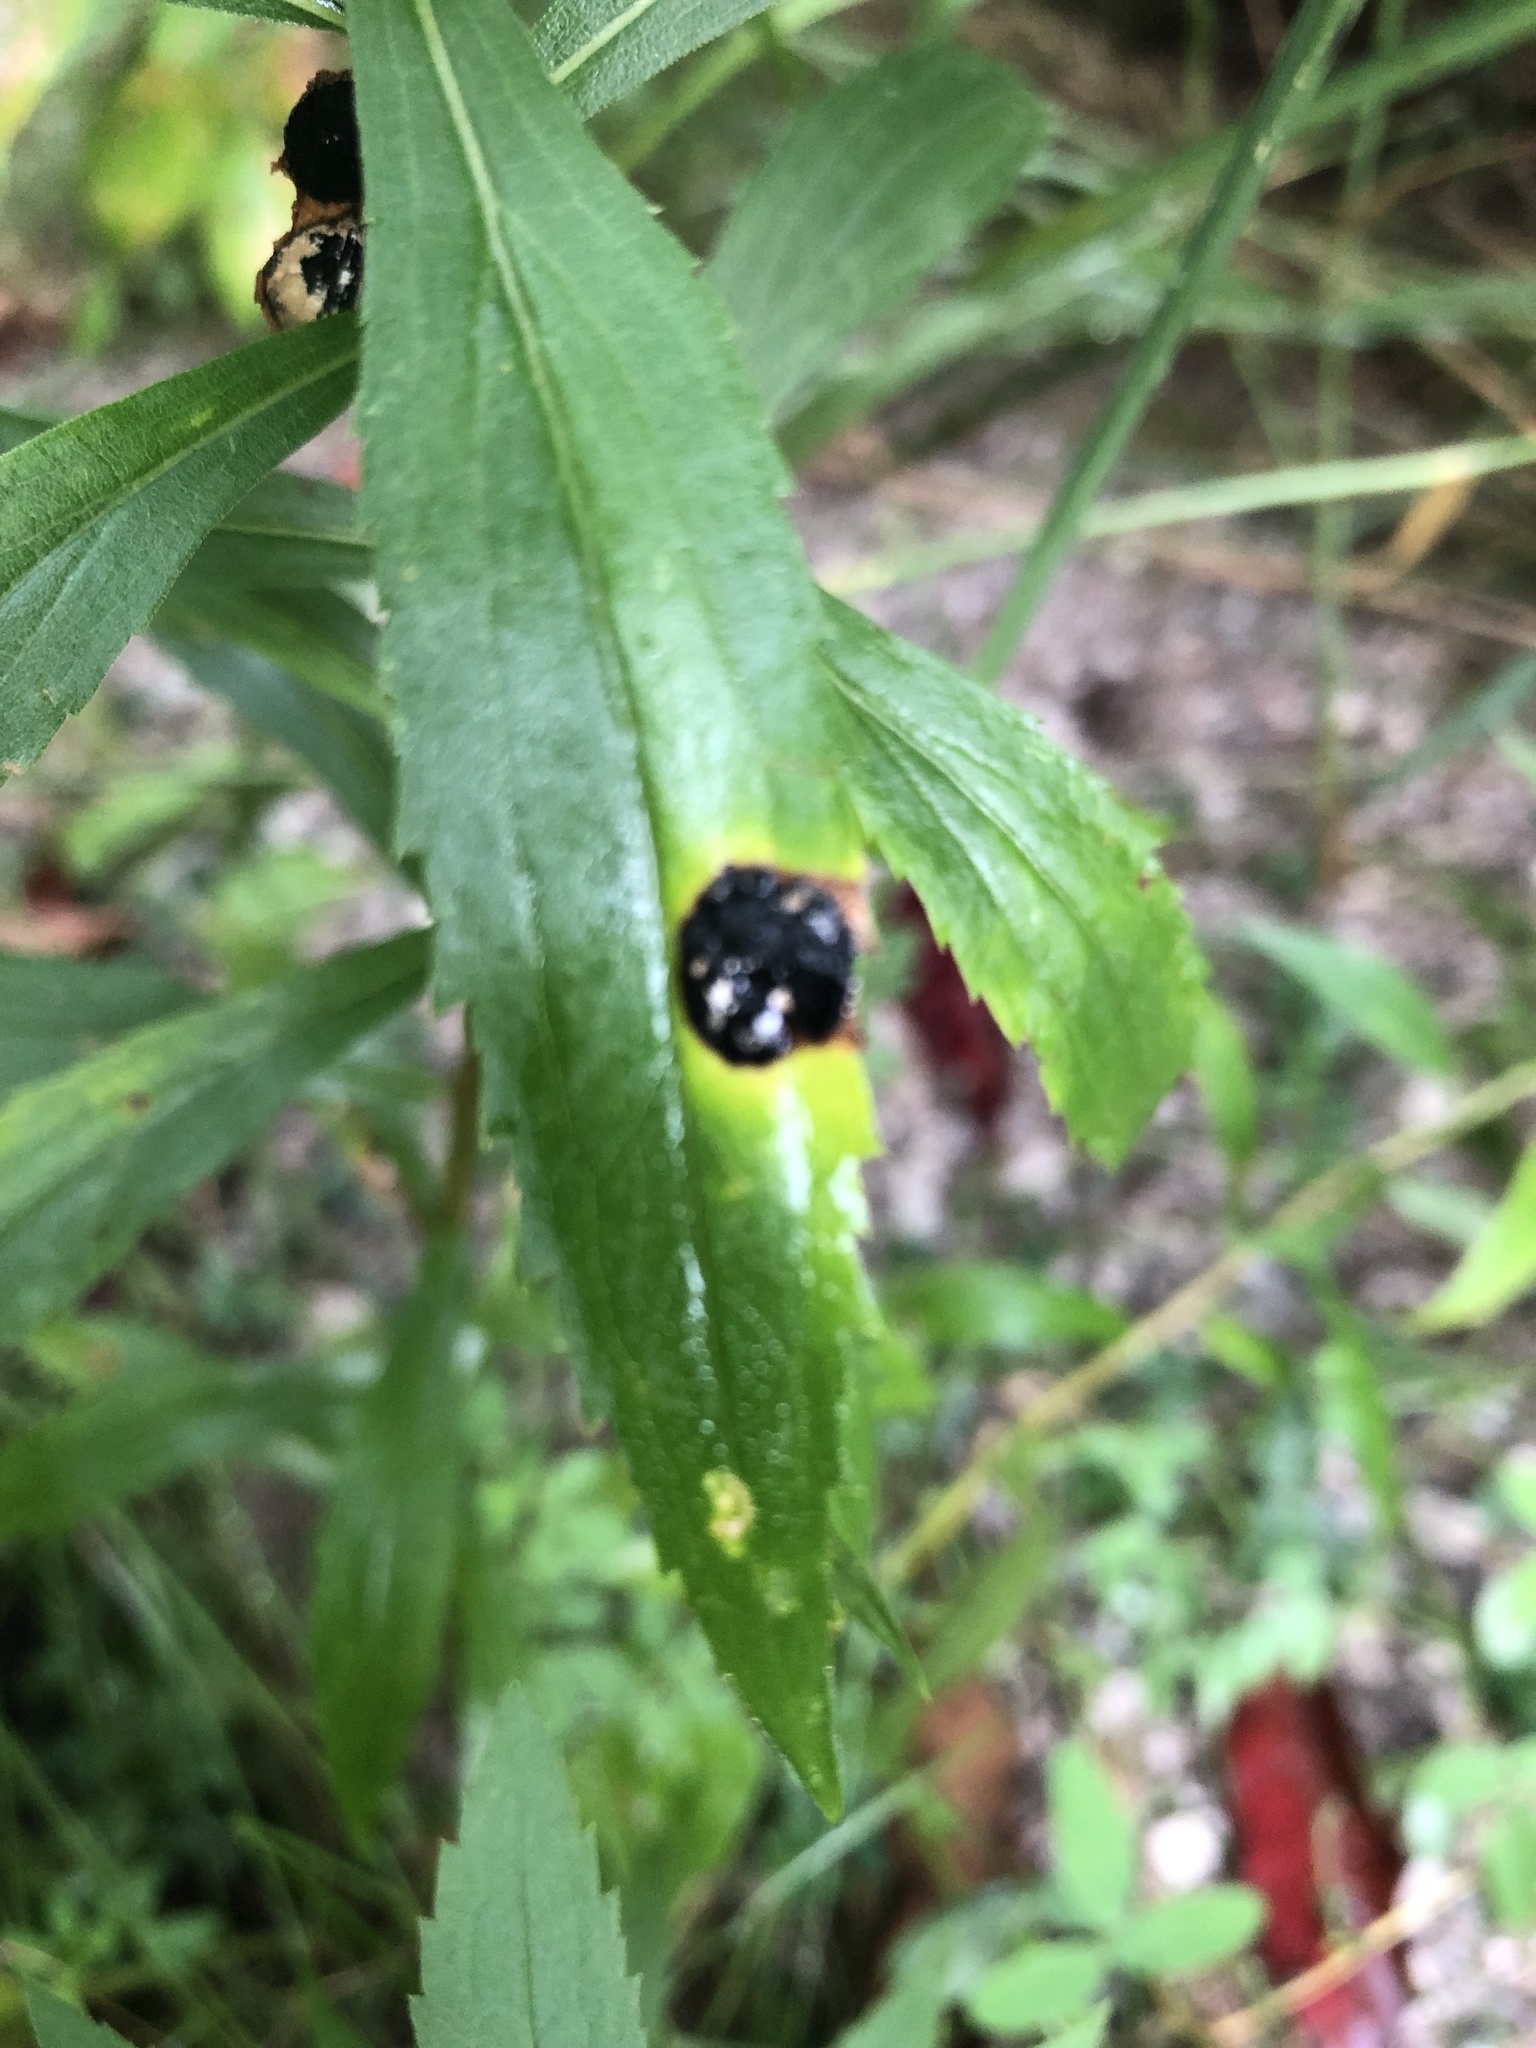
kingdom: Animalia
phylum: Arthropoda
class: Insecta
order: Diptera
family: Cecidomyiidae
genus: Asteromyia
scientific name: Asteromyia carbonifera
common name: Carbonifera goldenrod gall midge
